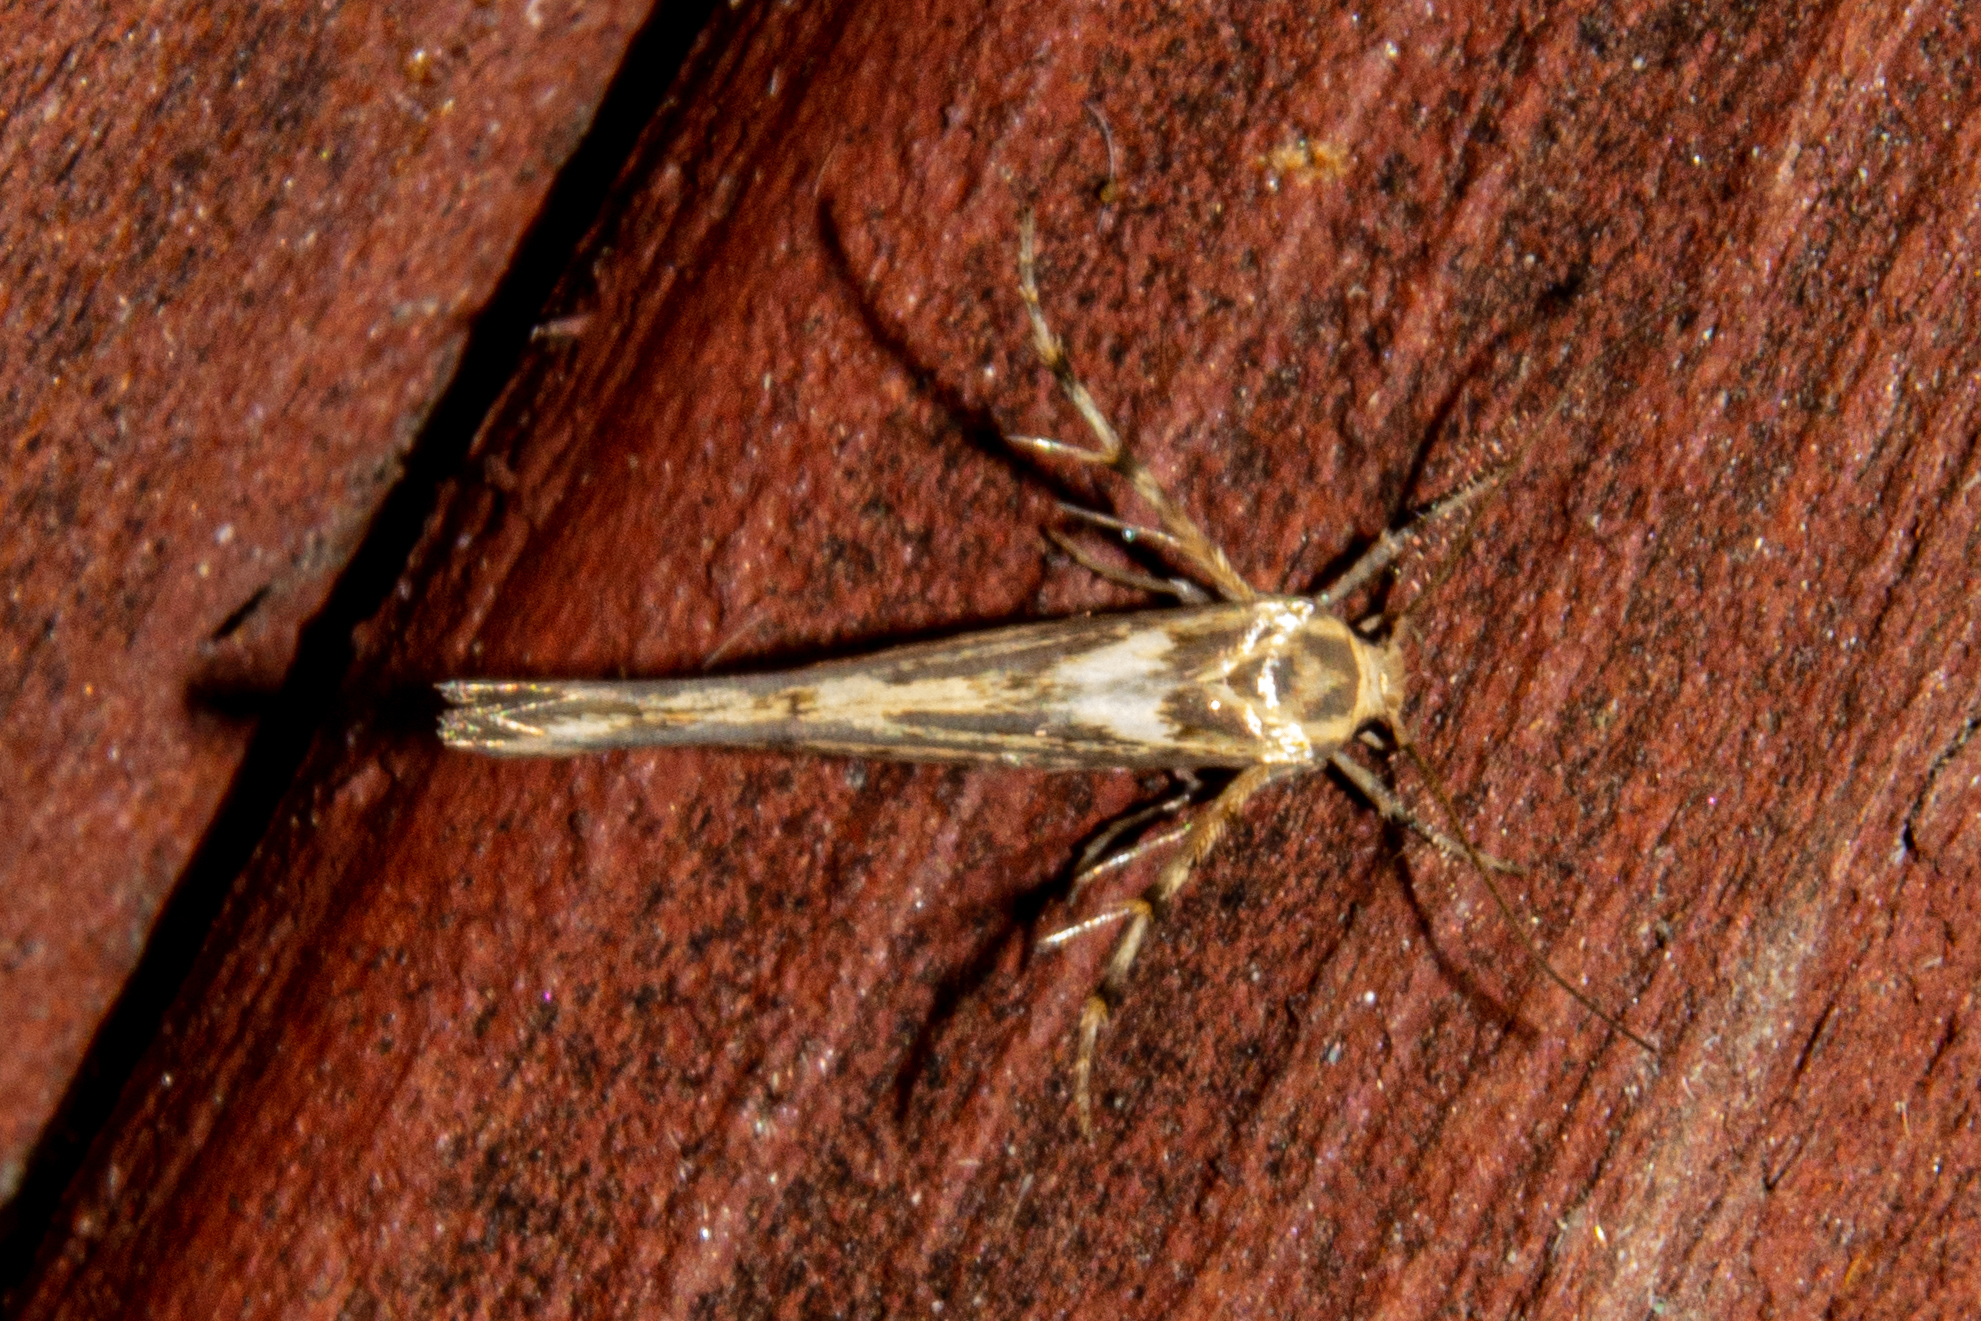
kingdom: Animalia
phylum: Arthropoda
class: Insecta
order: Lepidoptera
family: Stathmopodidae
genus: Stathmopoda
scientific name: Stathmopoda plumbiflua
